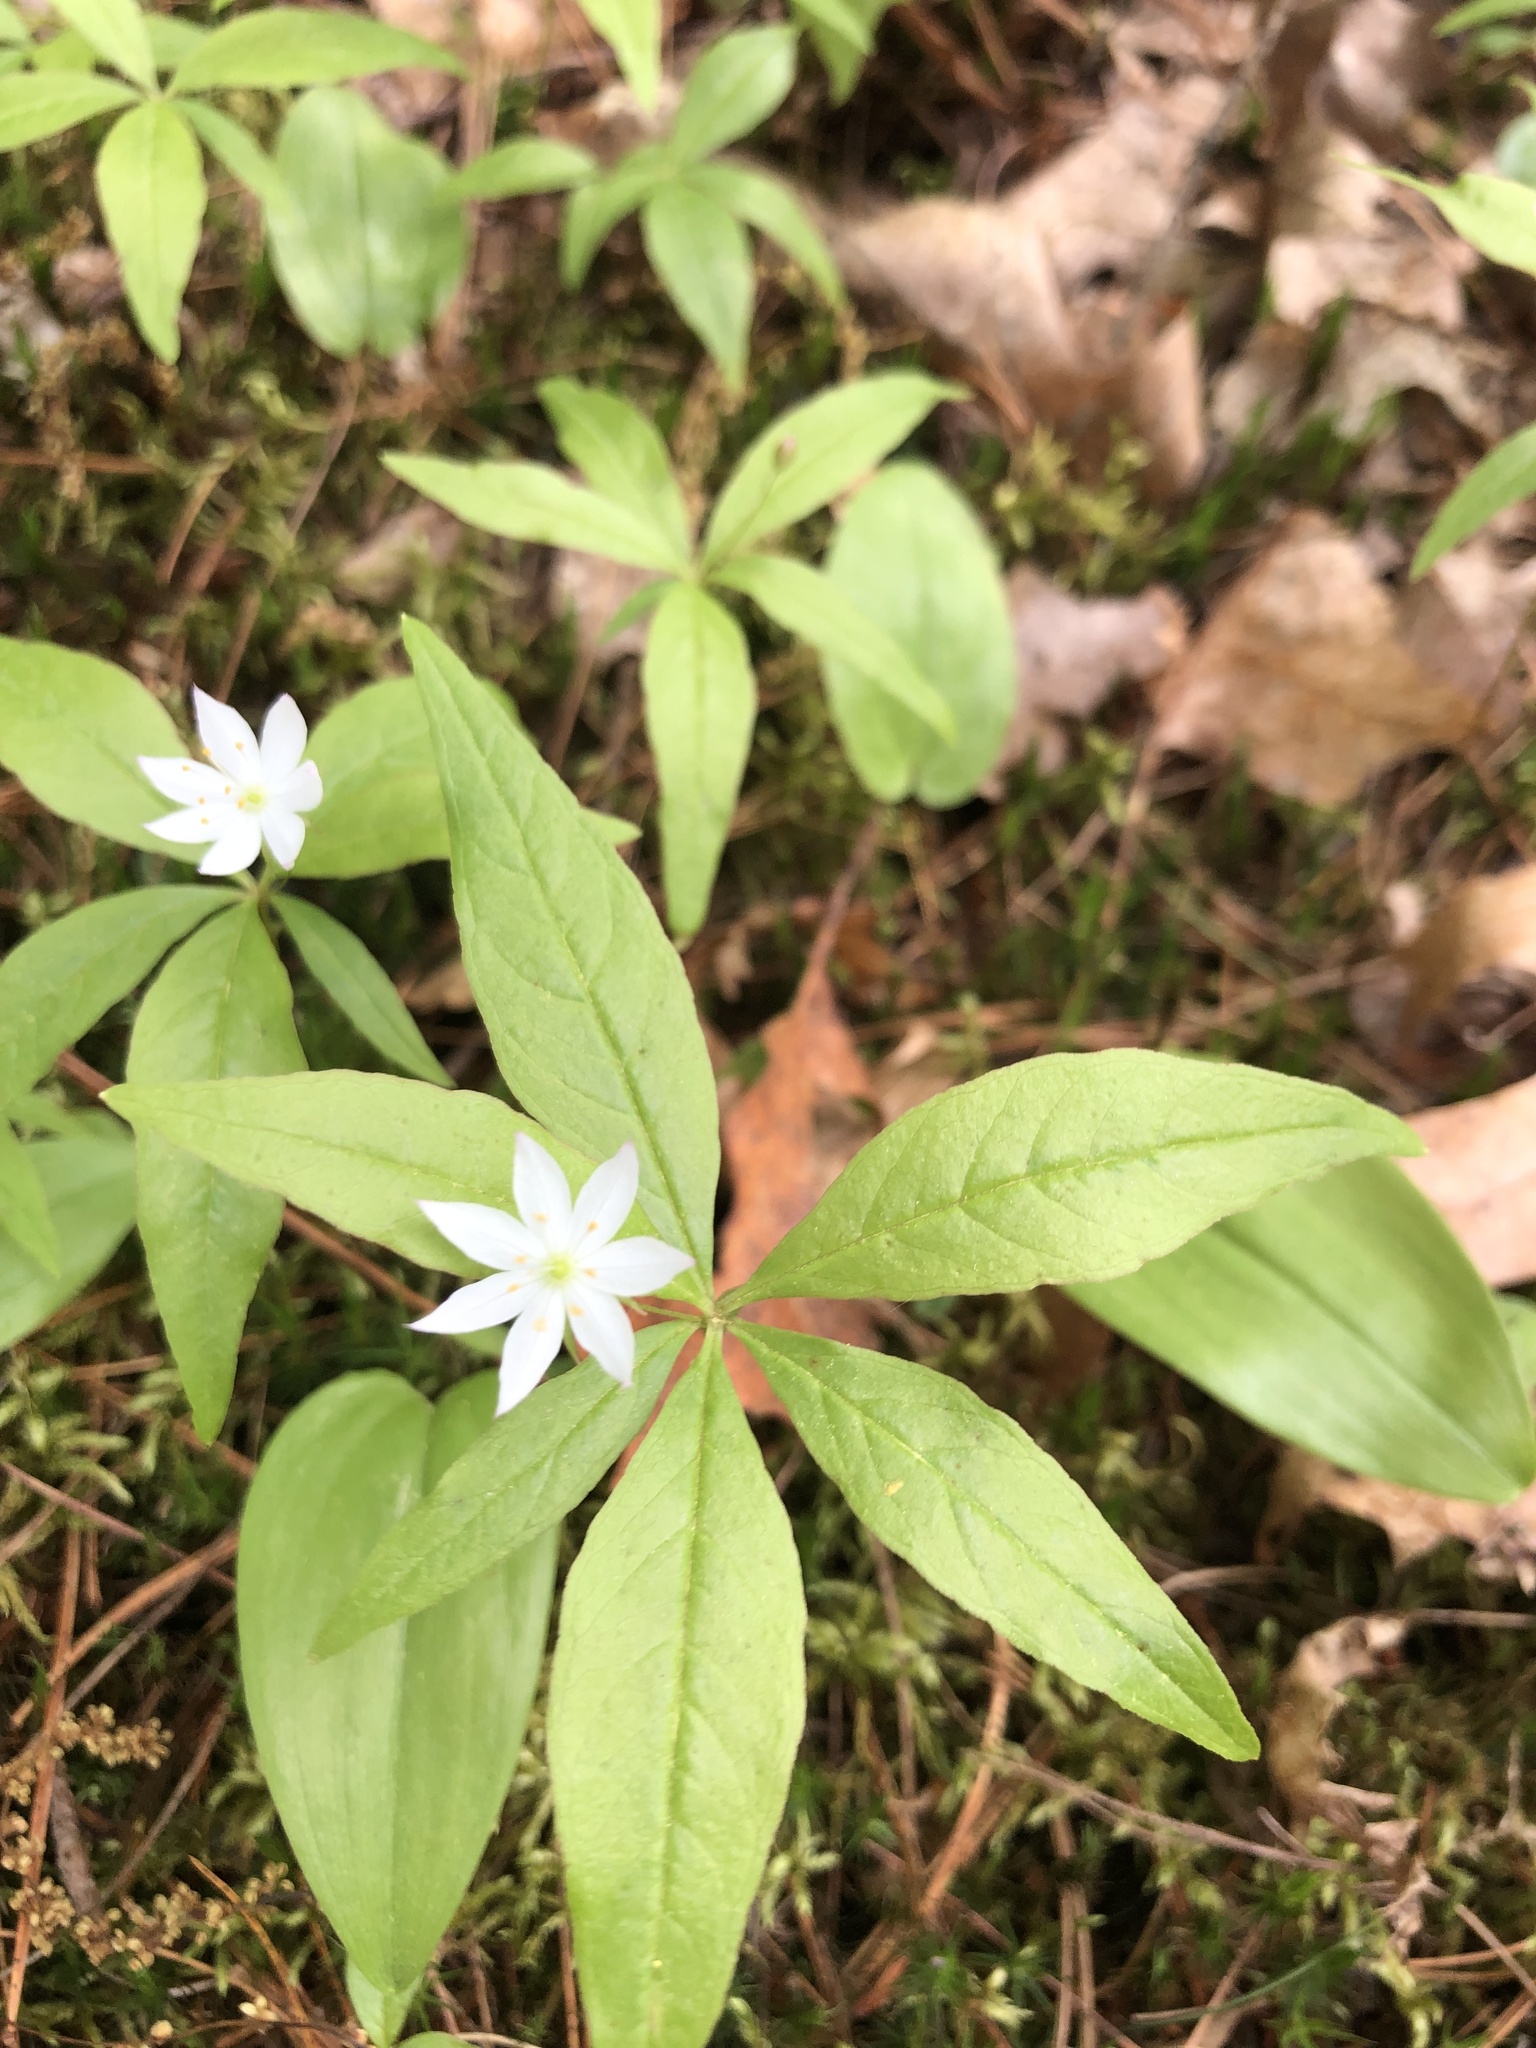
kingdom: Plantae
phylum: Tracheophyta
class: Magnoliopsida
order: Ericales
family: Primulaceae
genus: Lysimachia
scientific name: Lysimachia borealis
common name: American starflower
